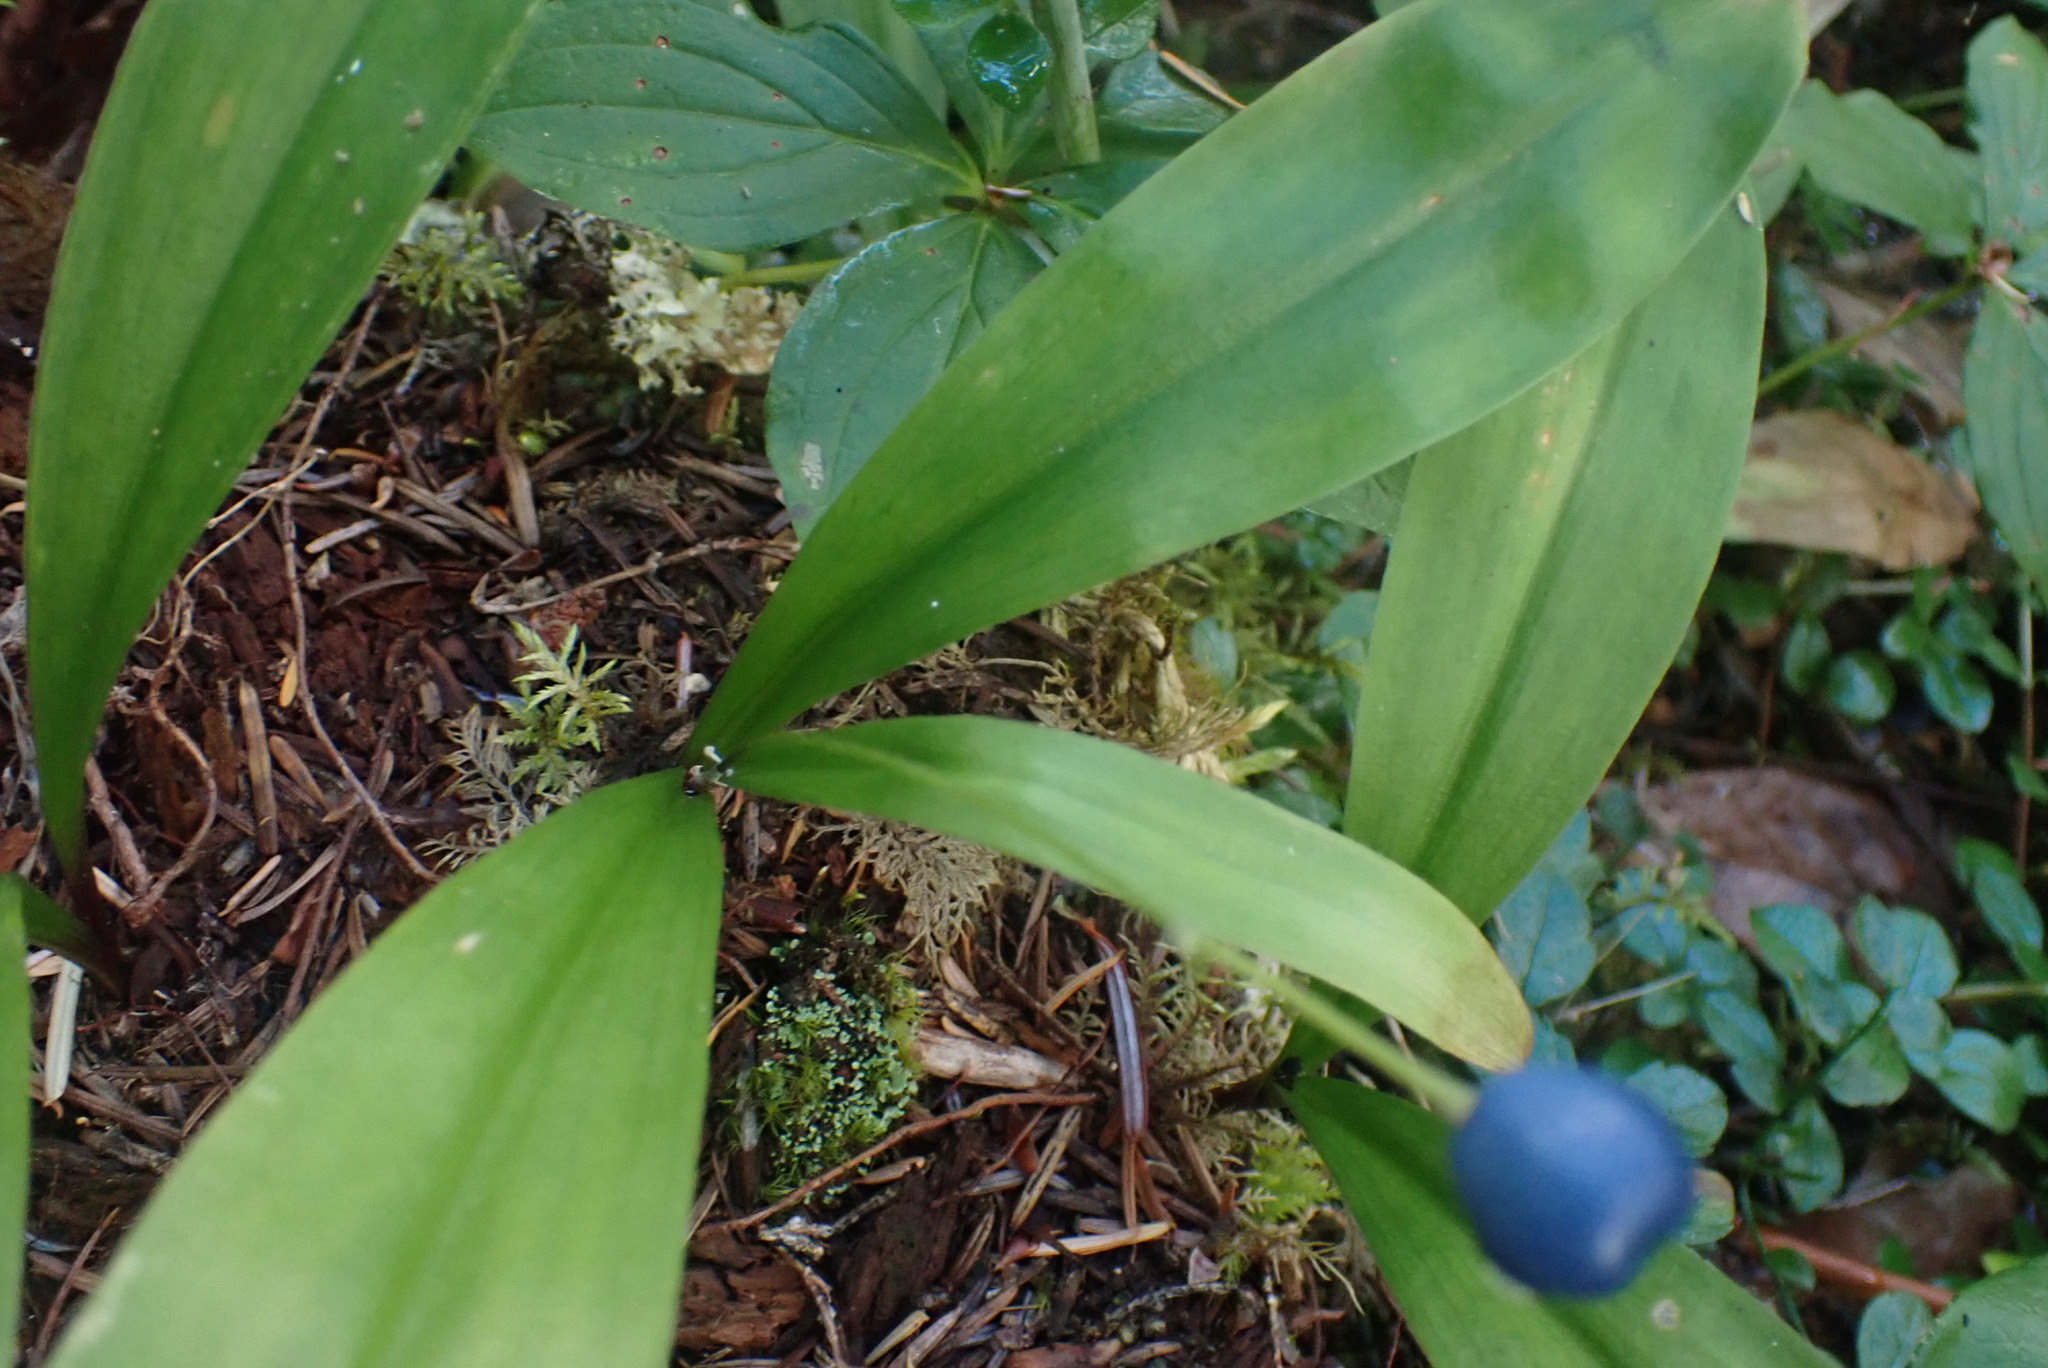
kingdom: Plantae
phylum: Tracheophyta
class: Liliopsida
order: Liliales
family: Liliaceae
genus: Clintonia
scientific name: Clintonia uniflora
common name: Queen's cup
